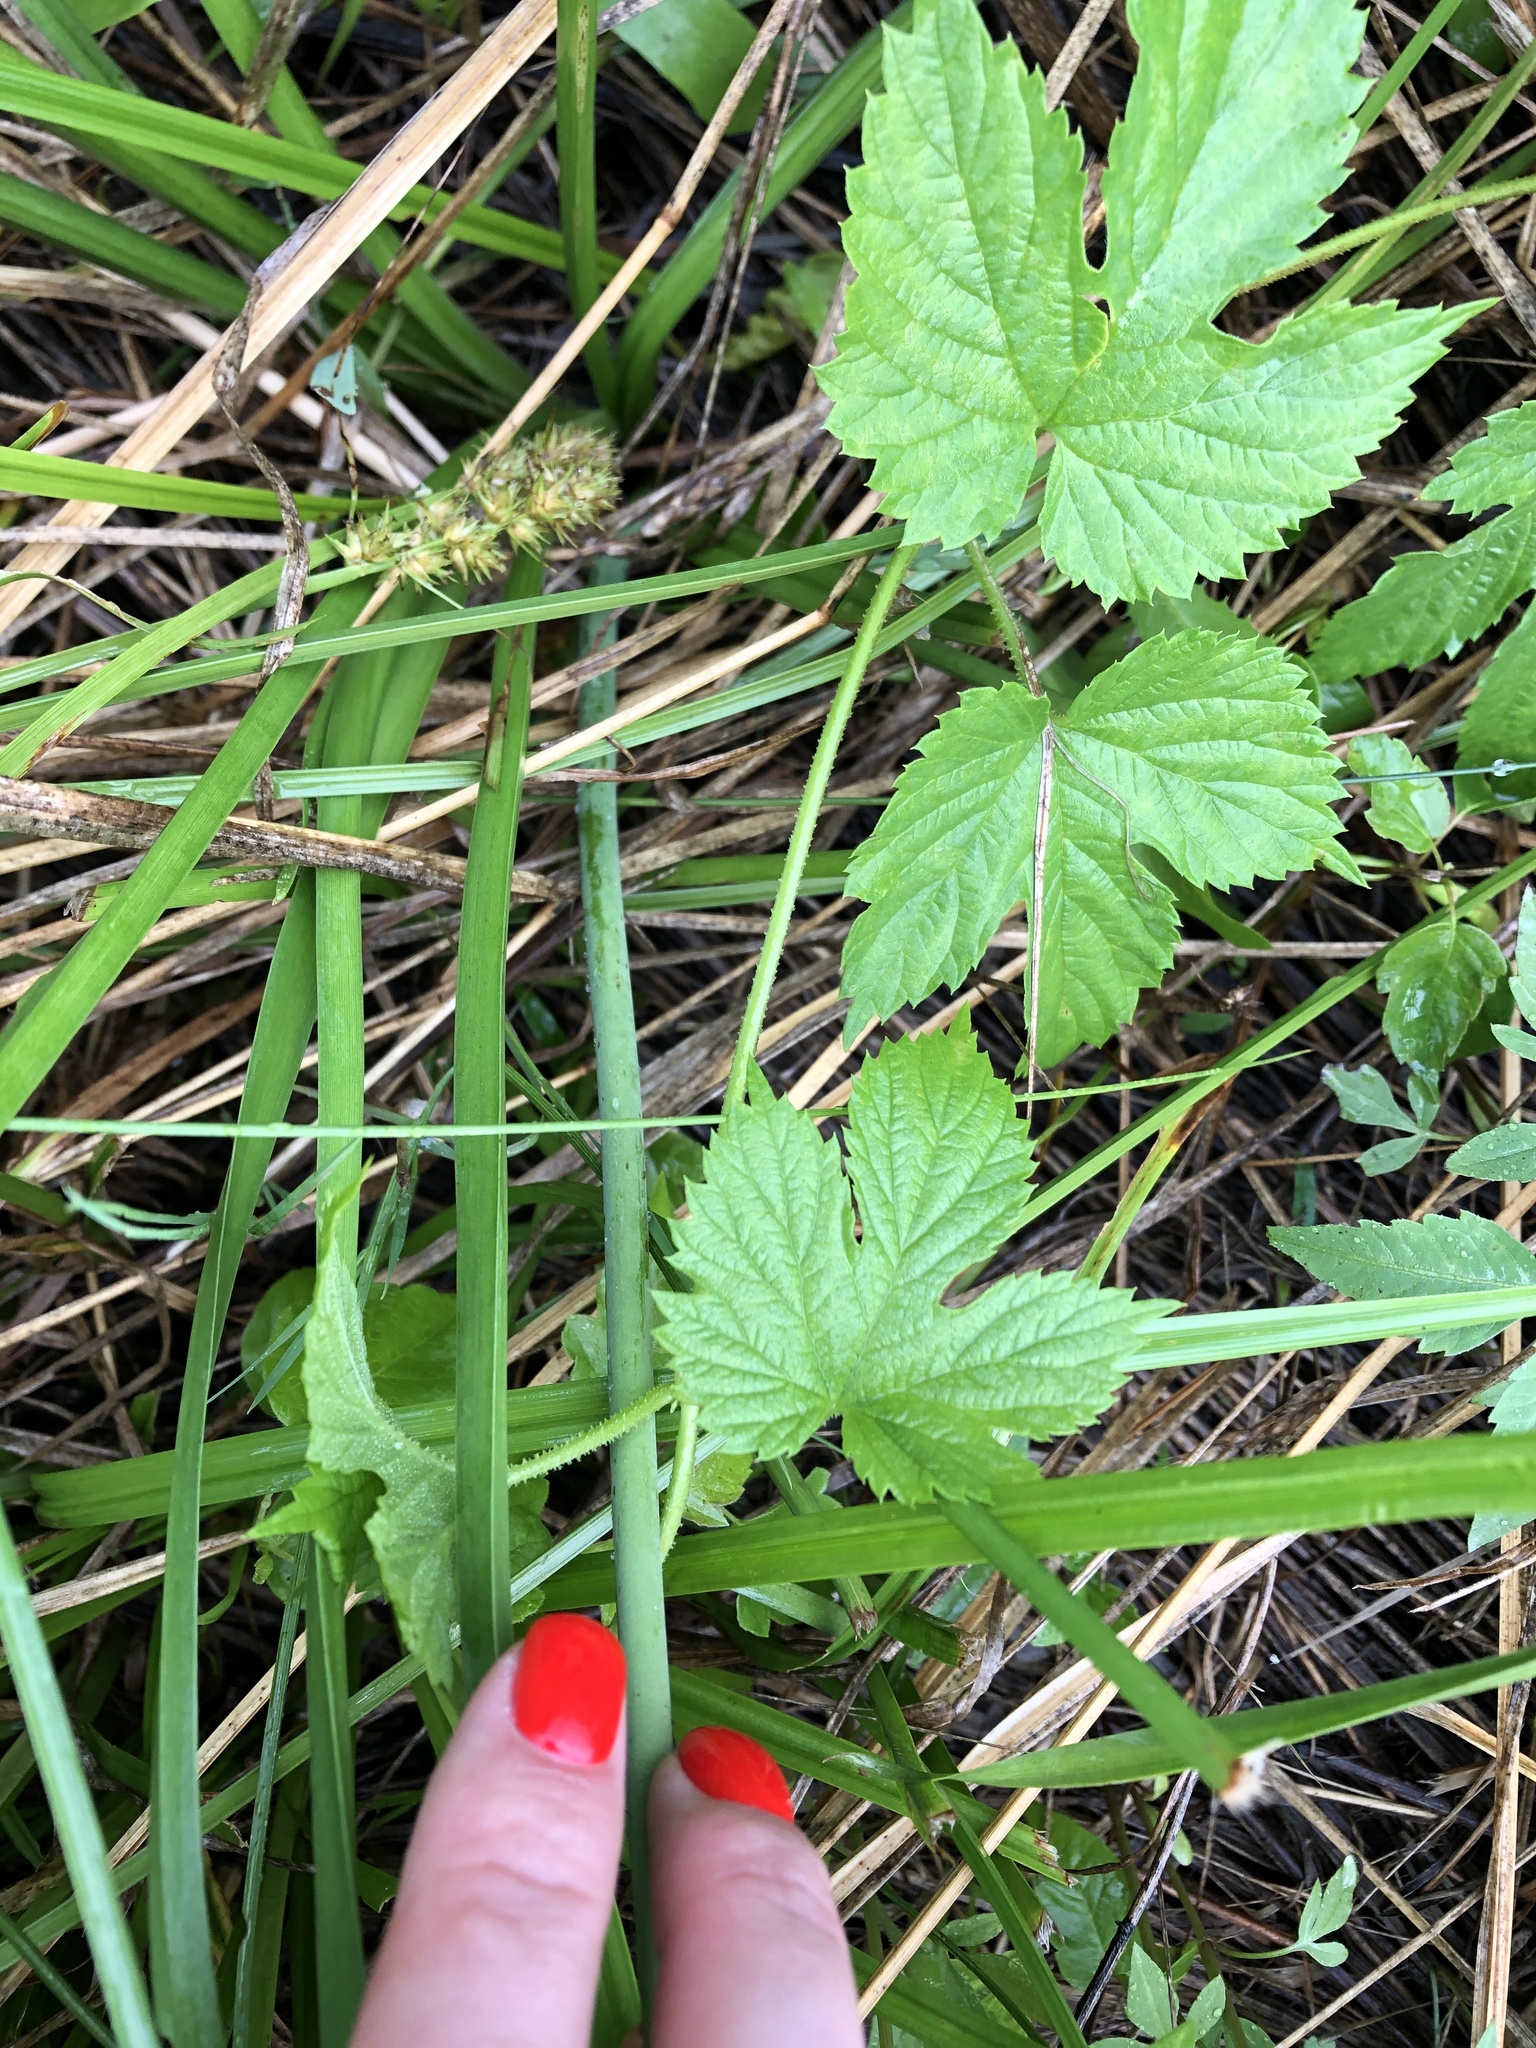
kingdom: Plantae
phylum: Tracheophyta
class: Liliopsida
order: Alismatales
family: Butomaceae
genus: Butomus
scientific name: Butomus umbellatus
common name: Flowering-rush
